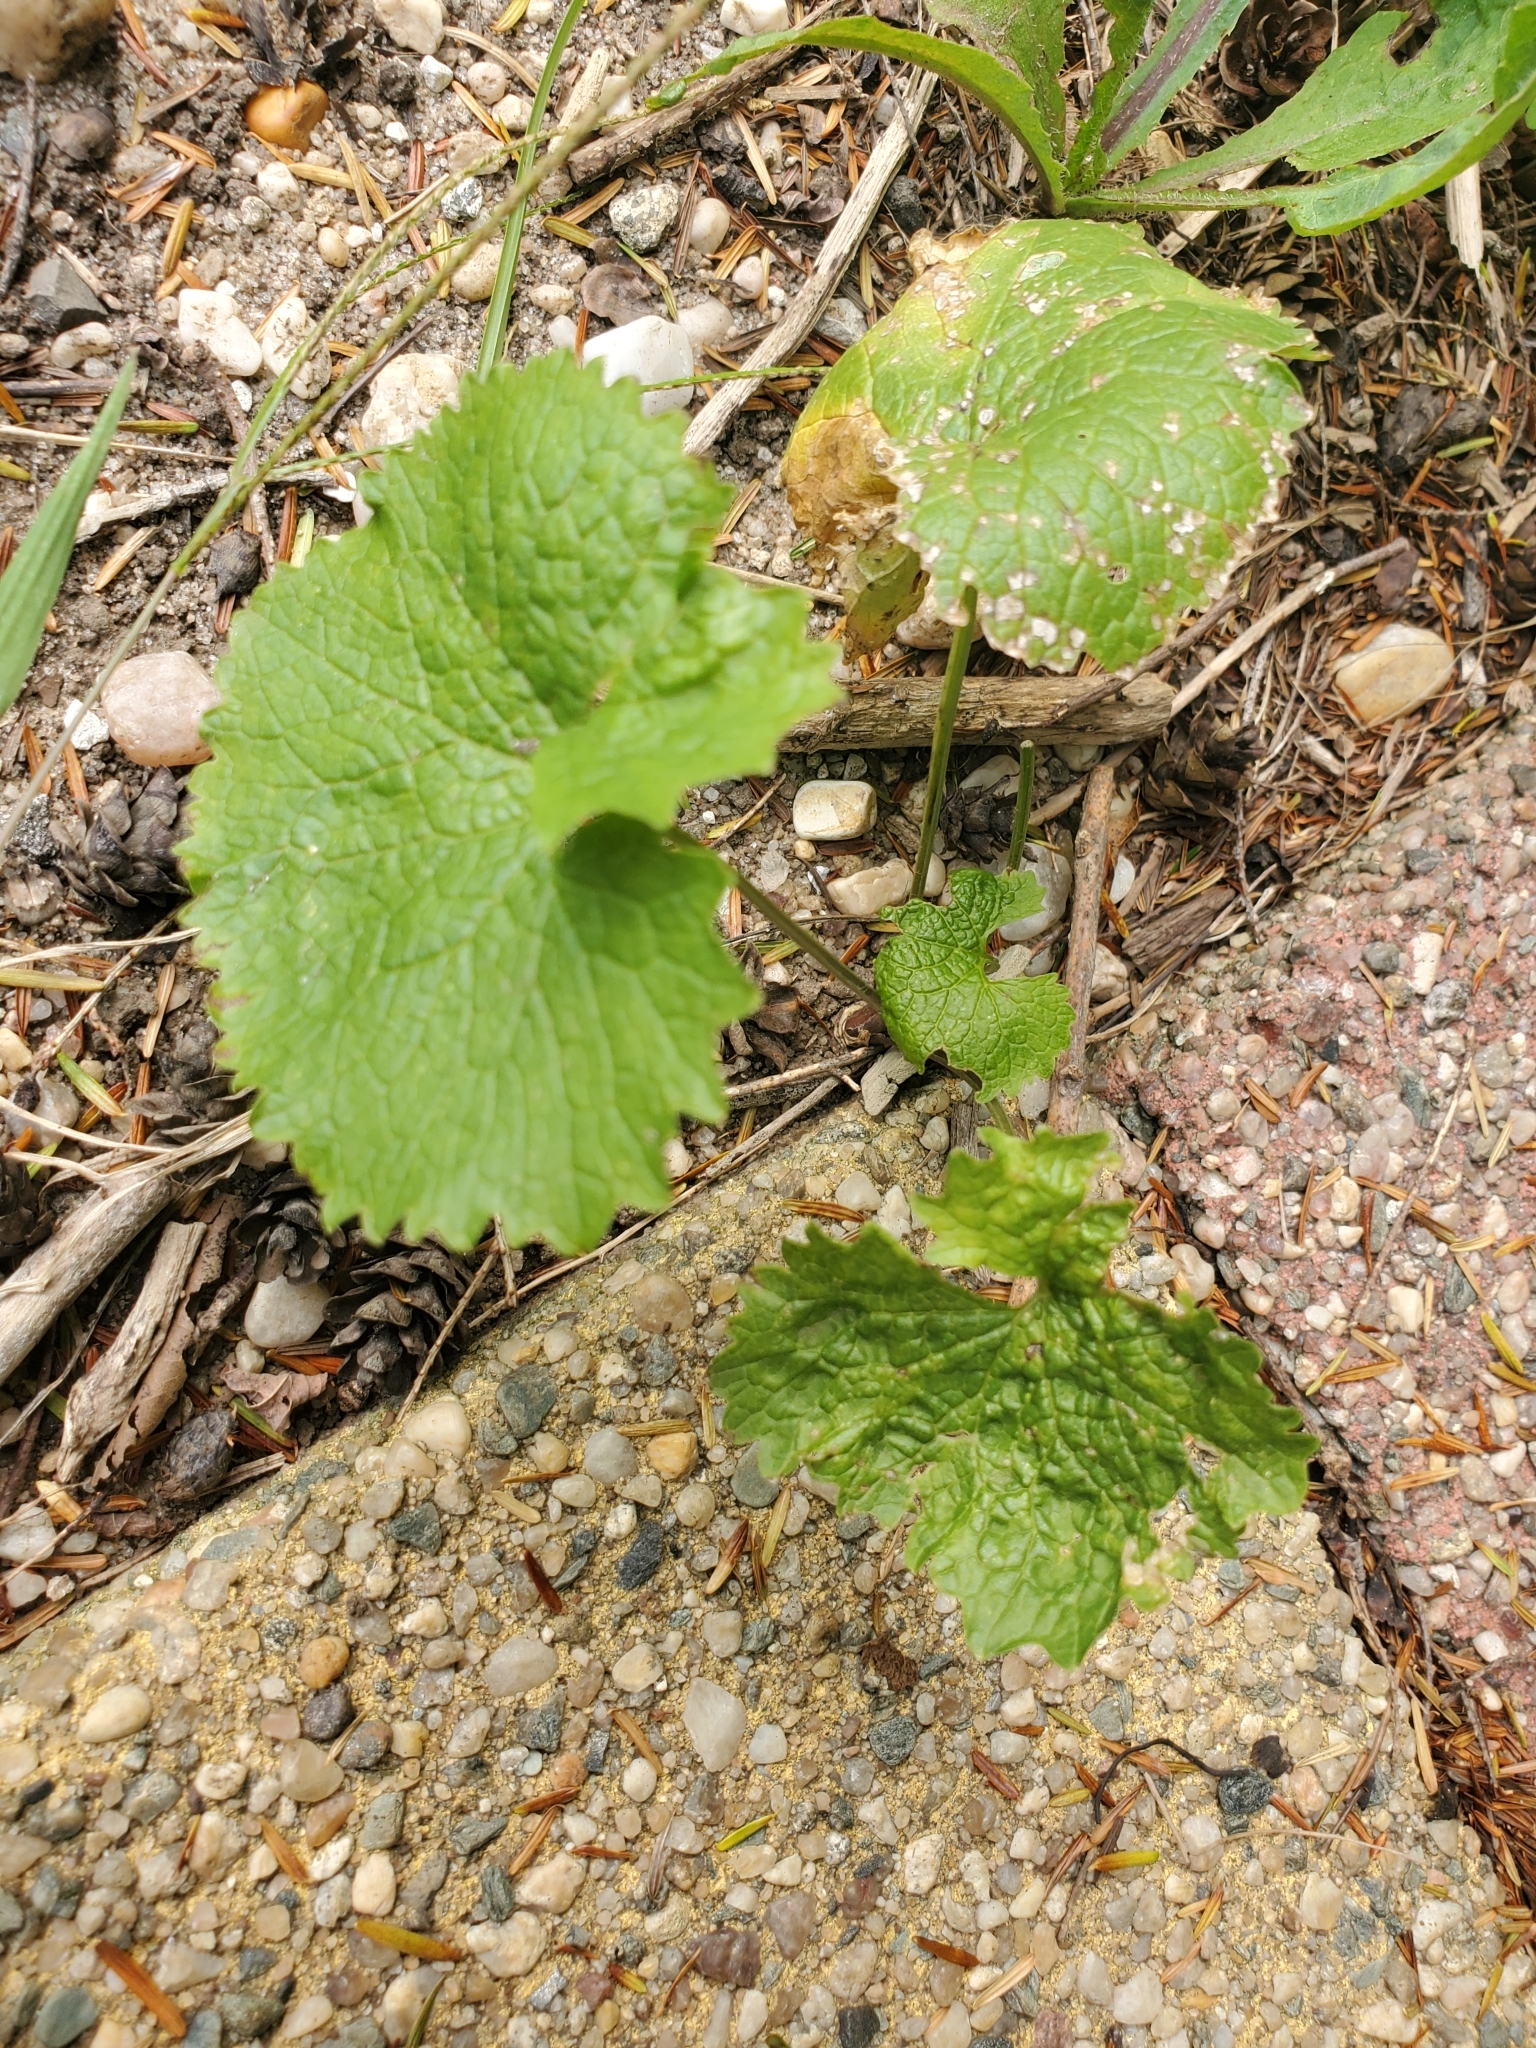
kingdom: Plantae
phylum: Tracheophyta
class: Magnoliopsida
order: Brassicales
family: Brassicaceae
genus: Alliaria
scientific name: Alliaria petiolata
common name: Garlic mustard
